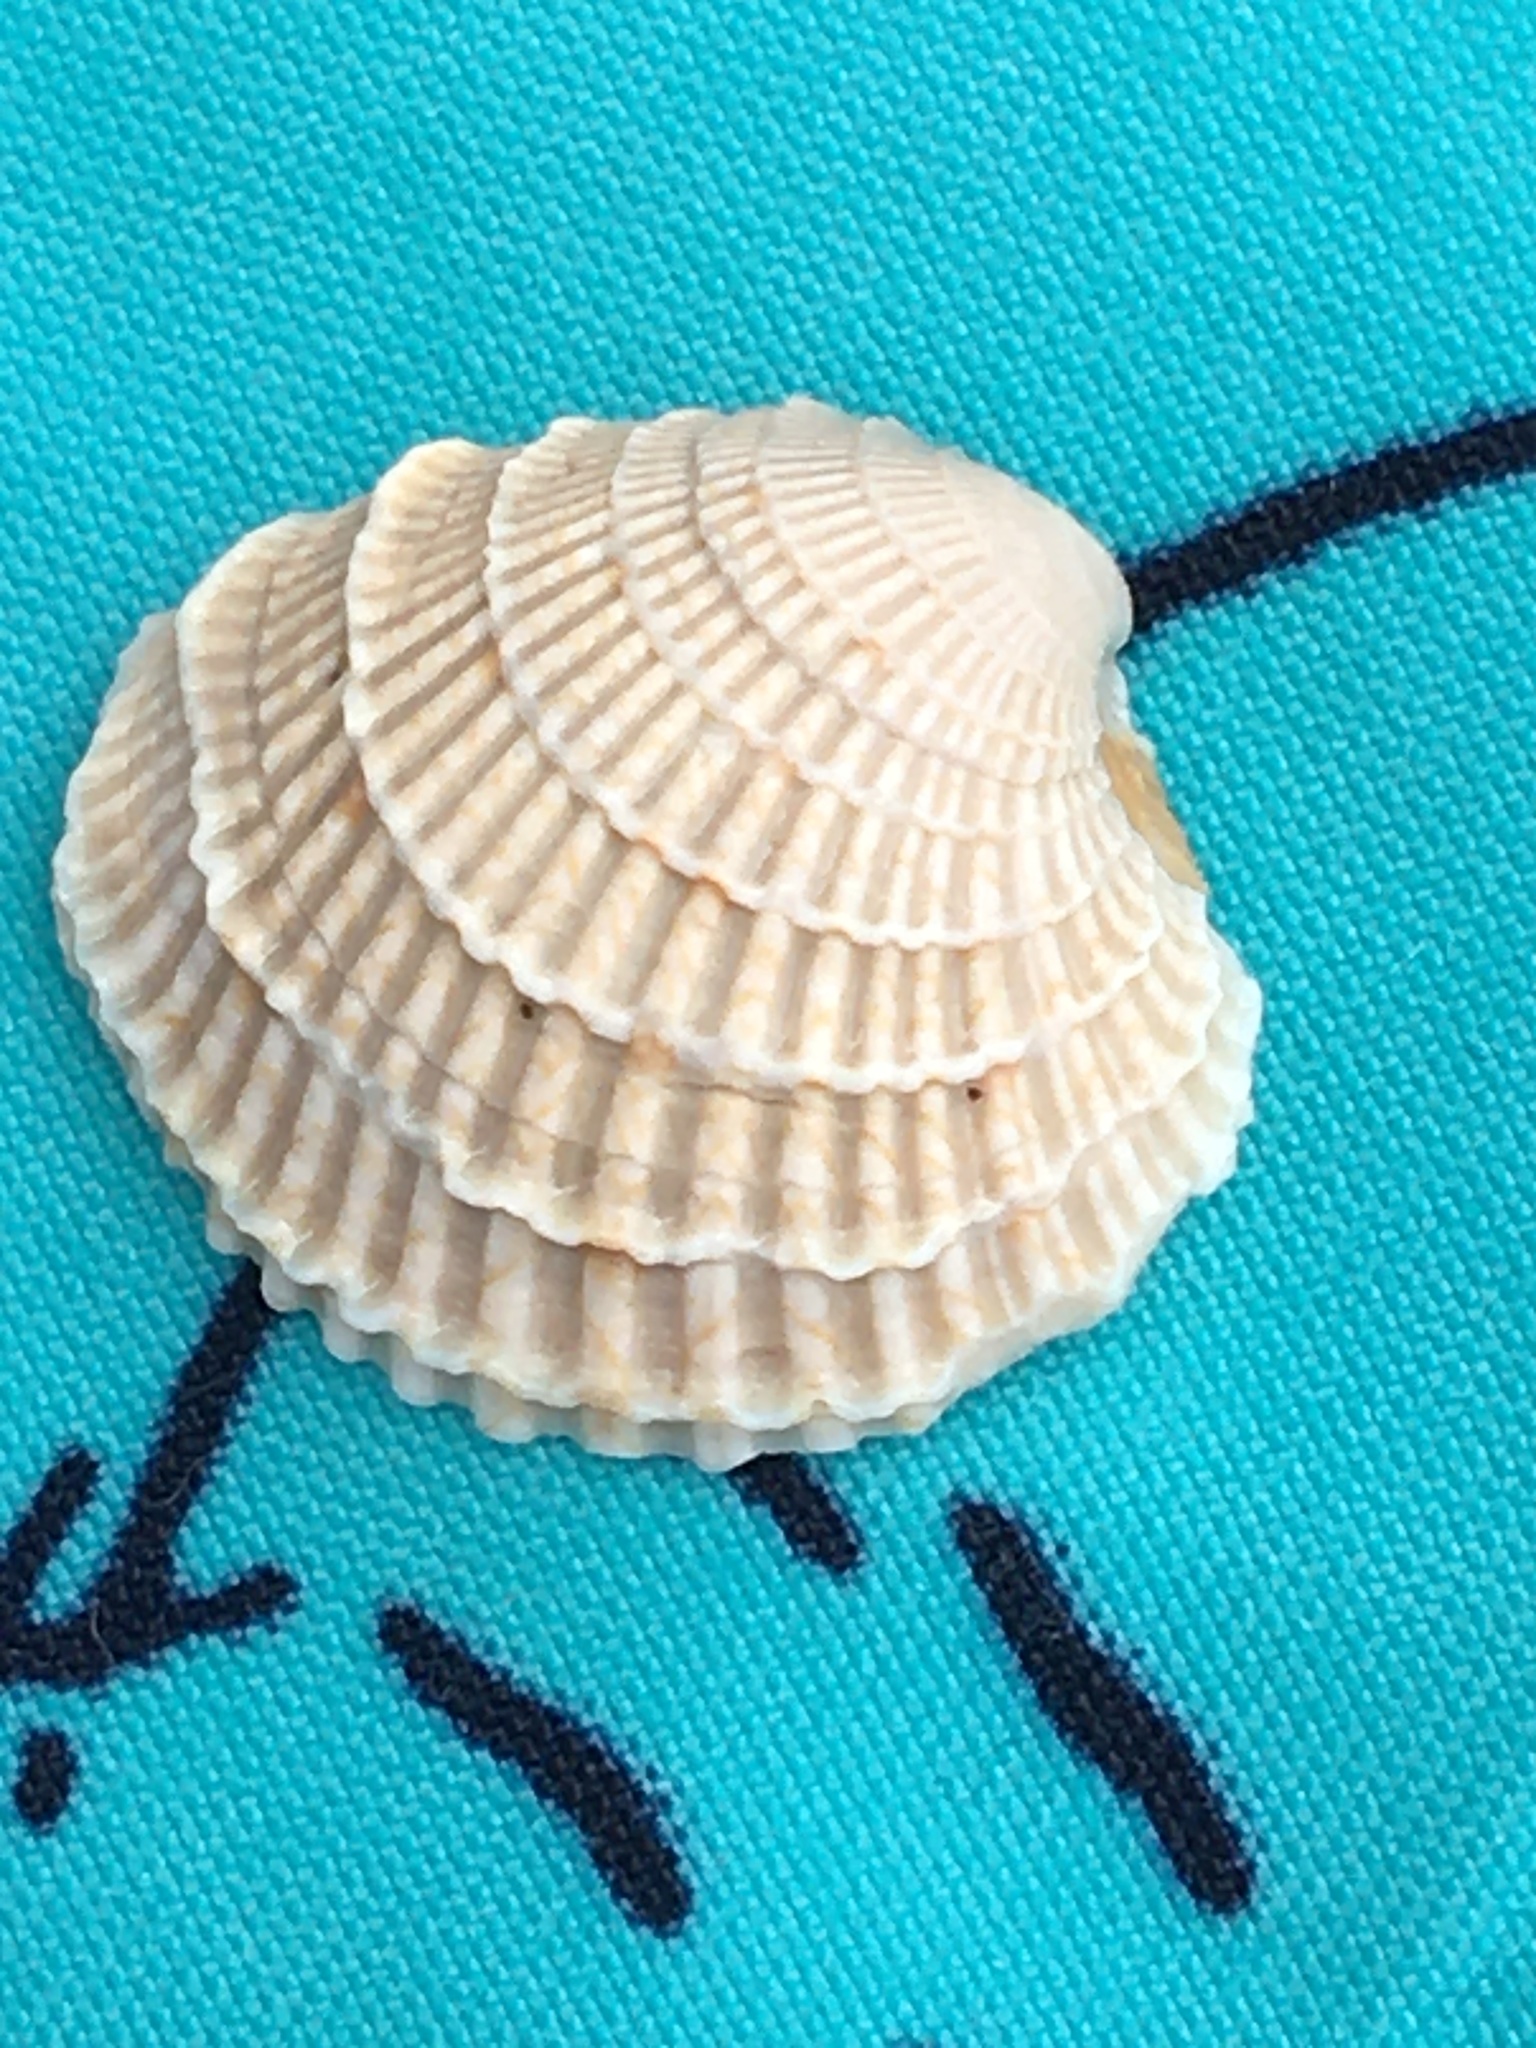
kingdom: Animalia
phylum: Mollusca
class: Bivalvia
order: Venerida
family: Veneridae
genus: Chione
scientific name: Chione elevata
